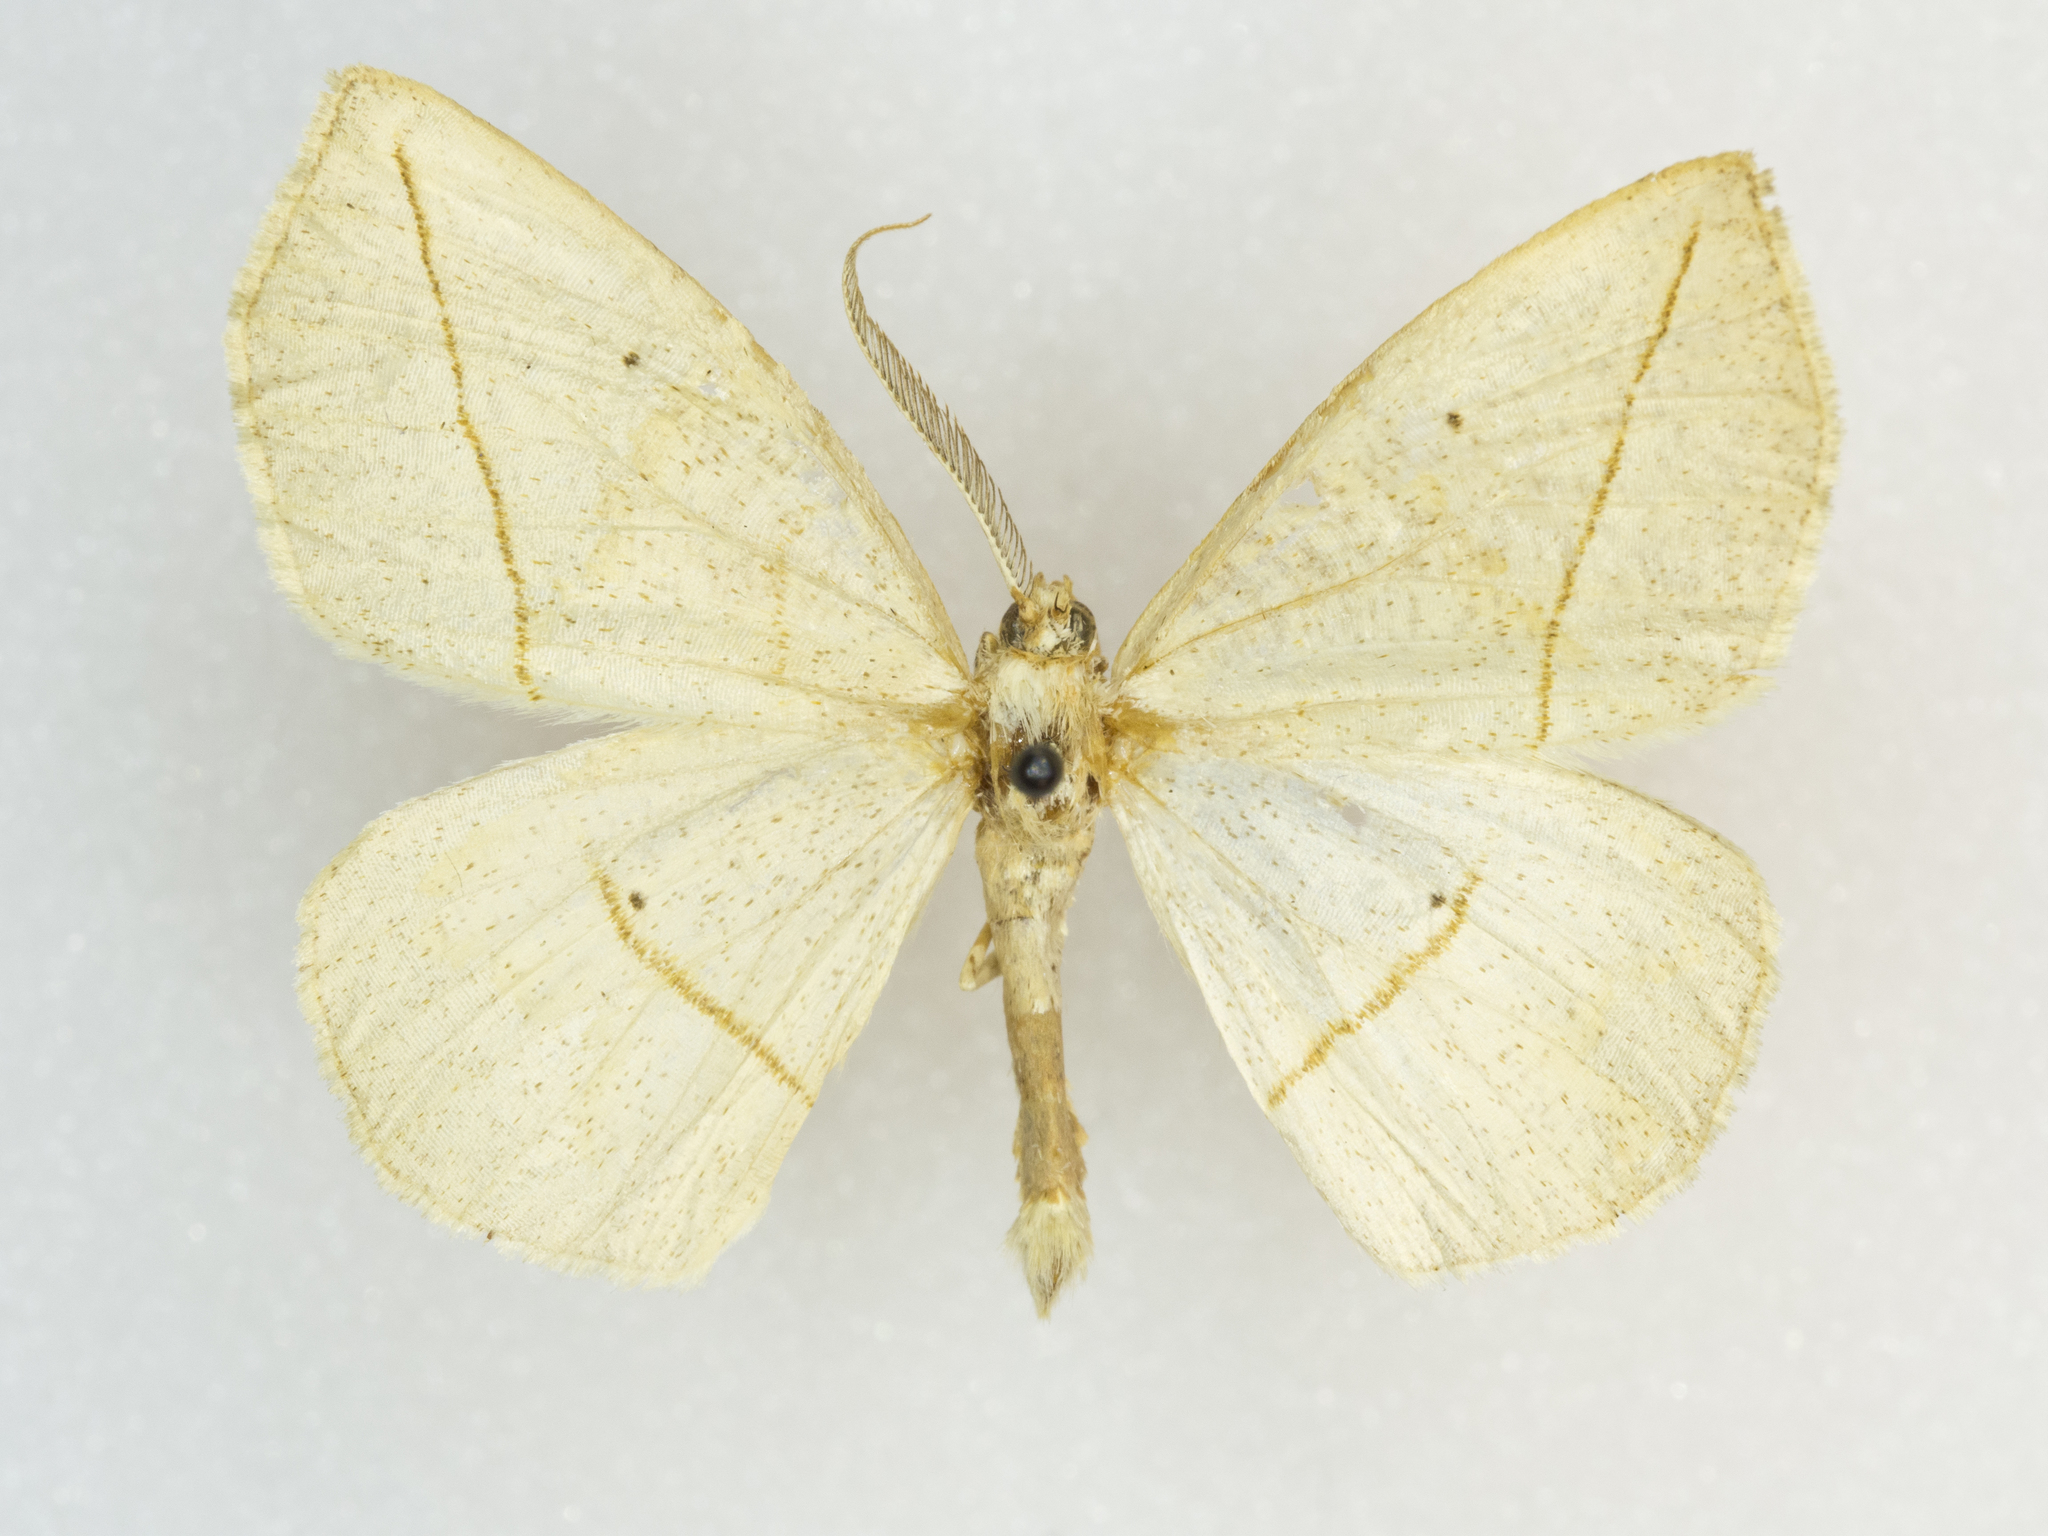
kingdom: Animalia
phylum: Arthropoda
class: Insecta
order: Lepidoptera
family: Geometridae
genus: Eusarca
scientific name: Eusarca confusaria
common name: Confused eusarca
